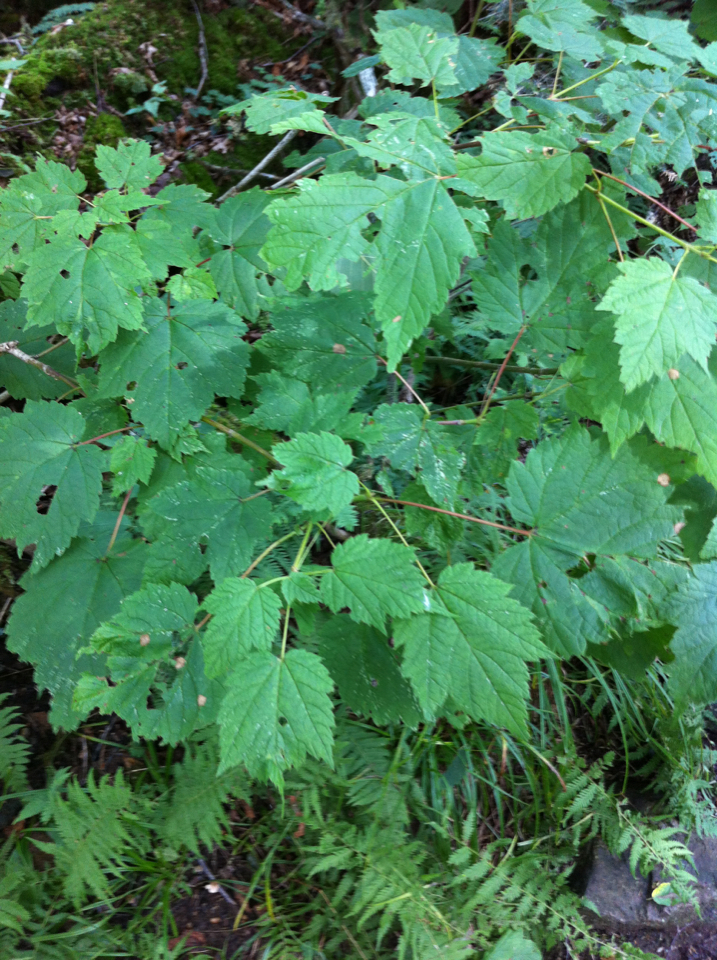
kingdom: Plantae
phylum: Tracheophyta
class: Magnoliopsida
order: Sapindales
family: Sapindaceae
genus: Acer
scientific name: Acer spicatum
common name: Mountain maple
